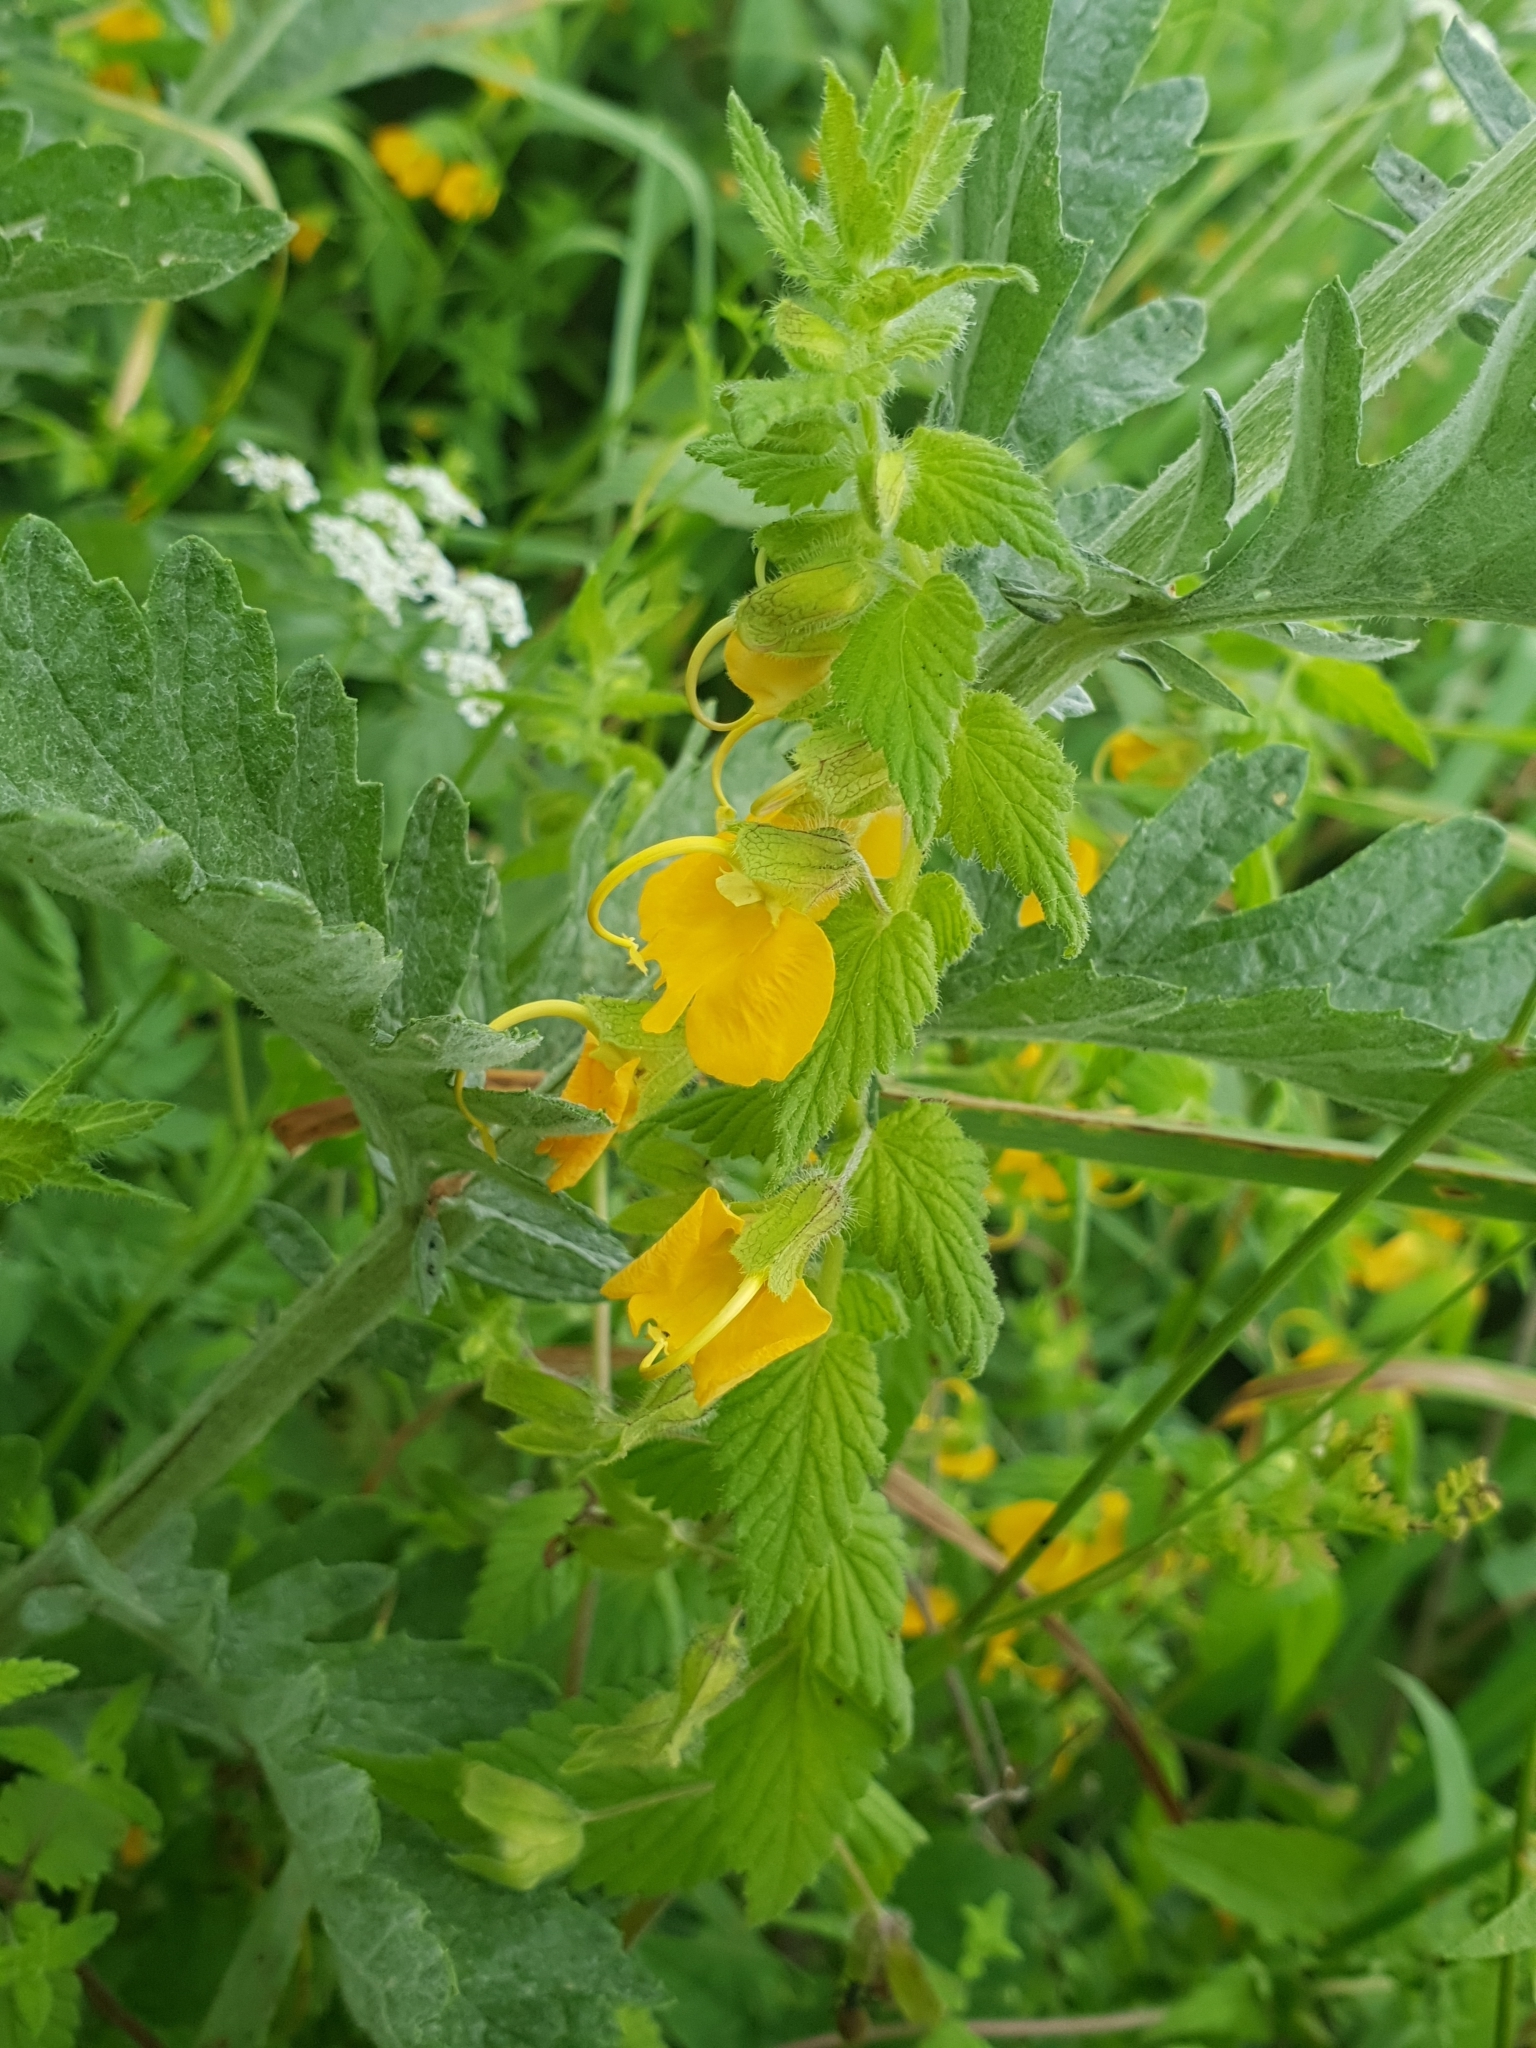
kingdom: Plantae
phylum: Tracheophyta
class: Magnoliopsida
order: Lamiales
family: Orobanchaceae
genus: Rhynchocorys
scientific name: Rhynchocorys orientalis
